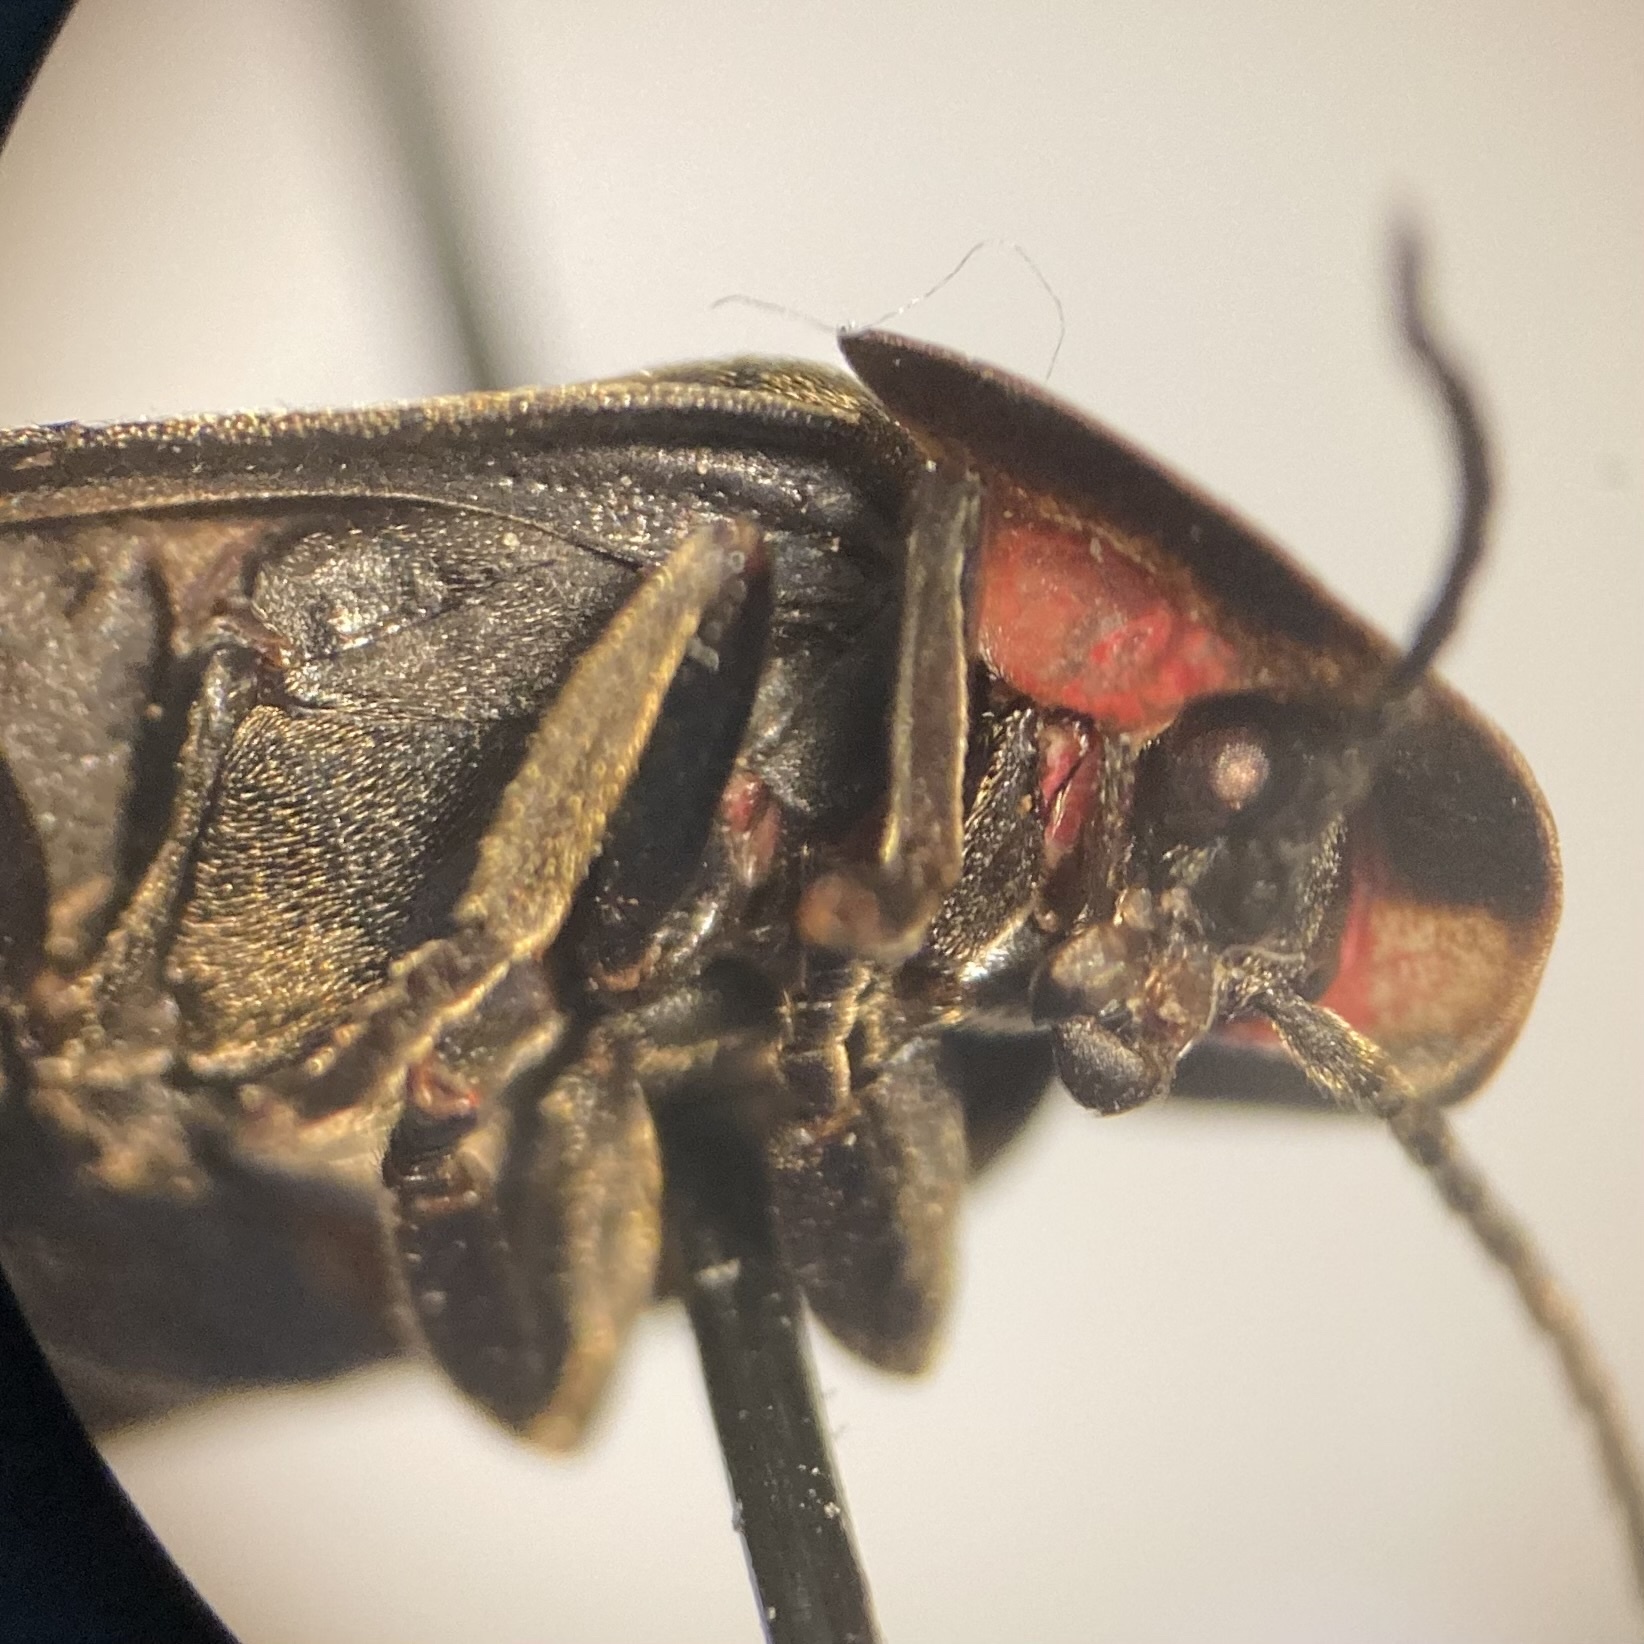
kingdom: Animalia
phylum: Arthropoda
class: Insecta
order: Coleoptera
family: Lampyridae
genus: Photinus
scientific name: Photinus corrusca
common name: Winter firefly
